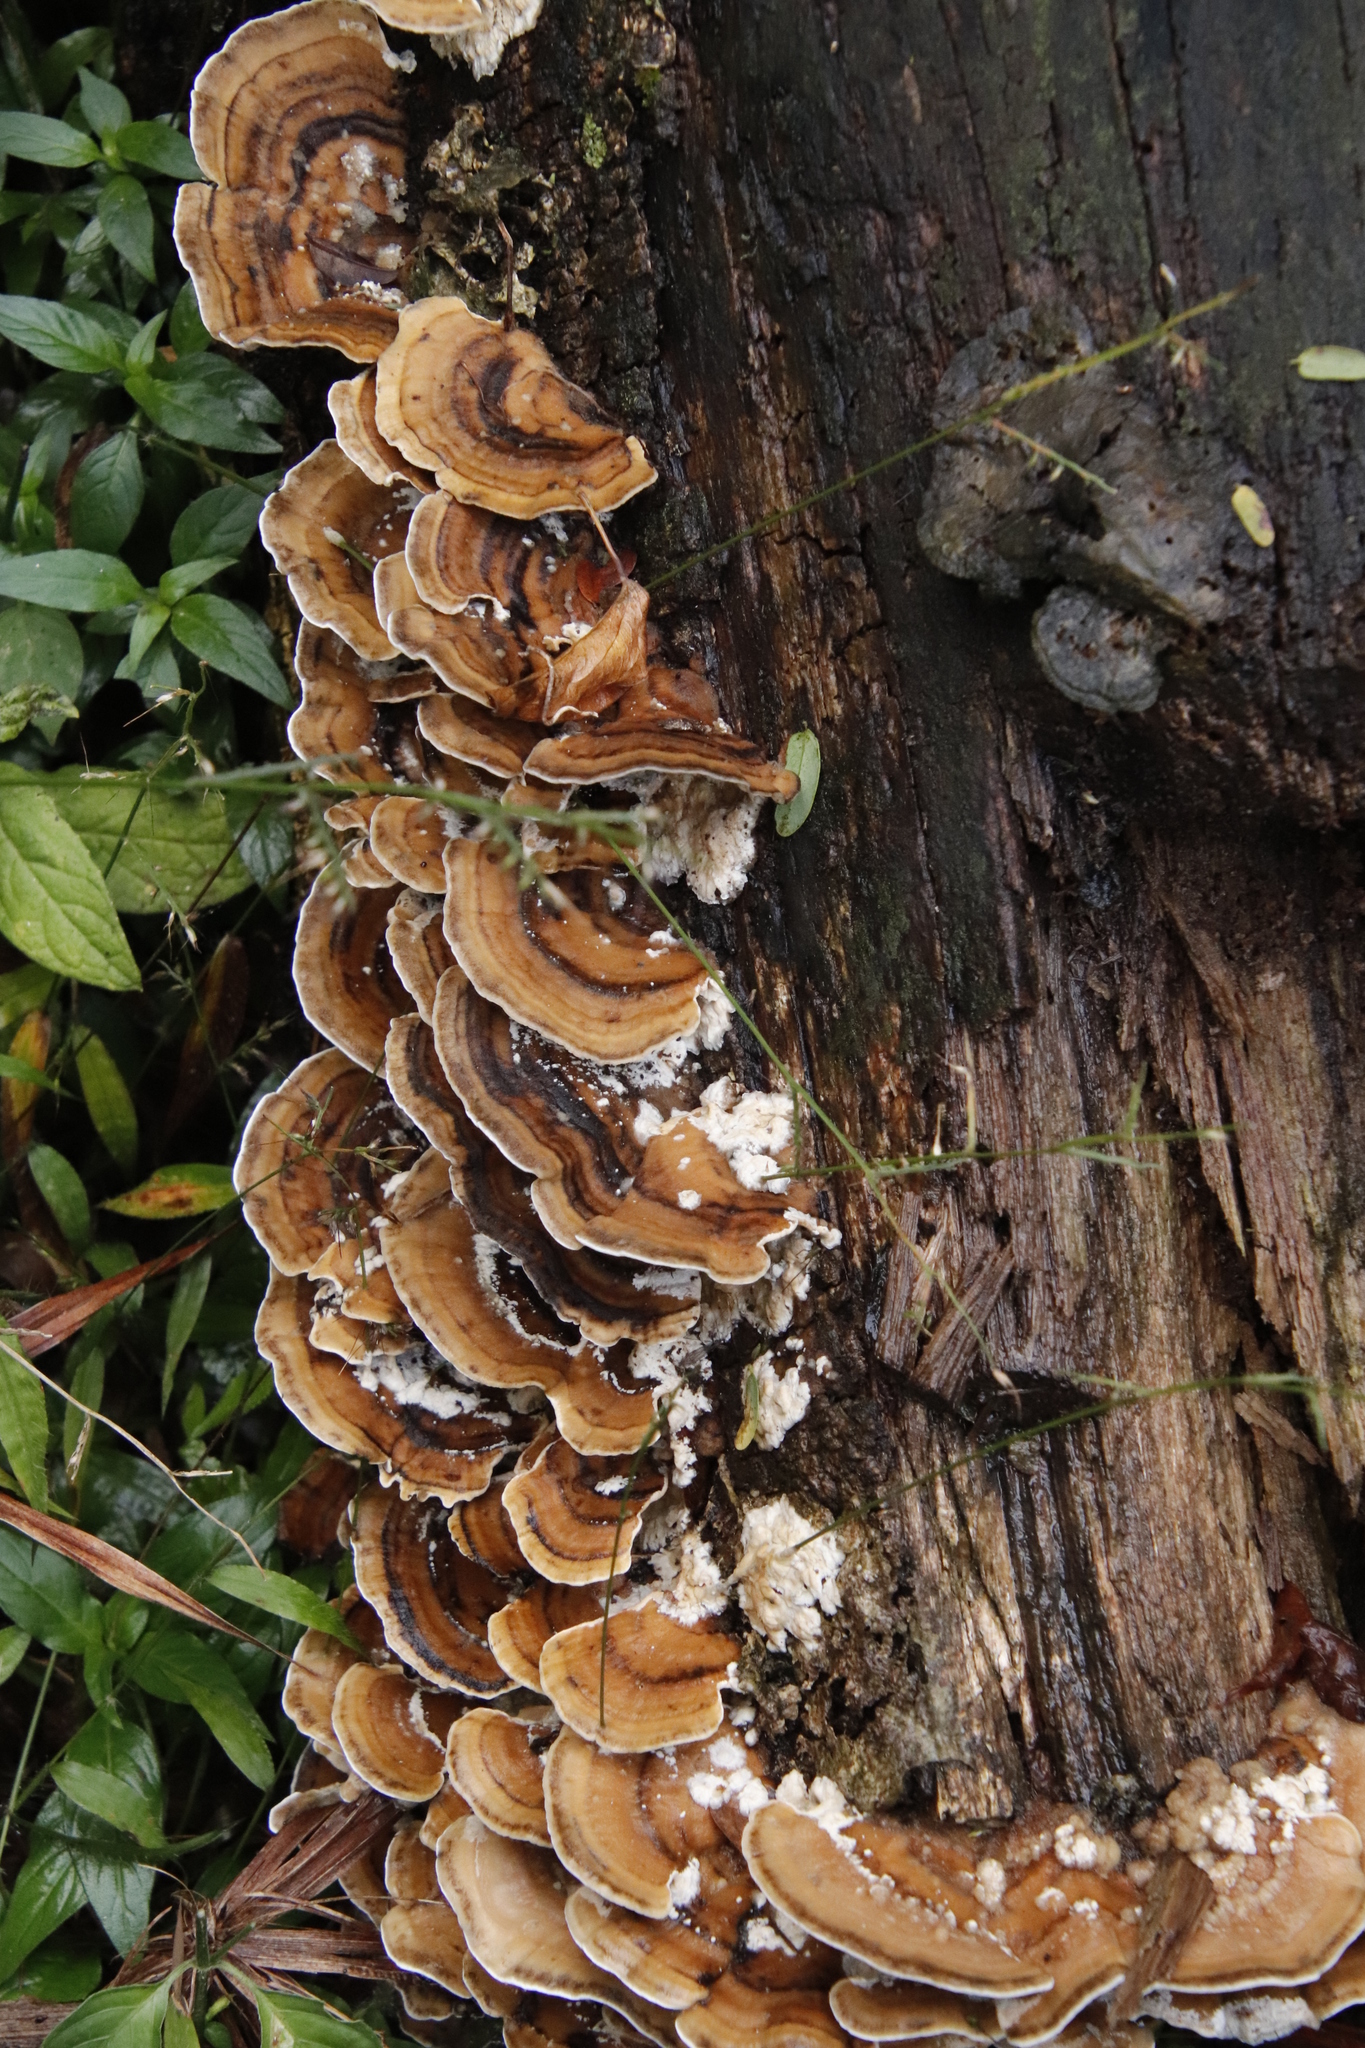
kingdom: Fungi
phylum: Basidiomycota
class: Agaricomycetes
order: Polyporales
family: Polyporaceae
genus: Trametes
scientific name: Trametes cubensis
